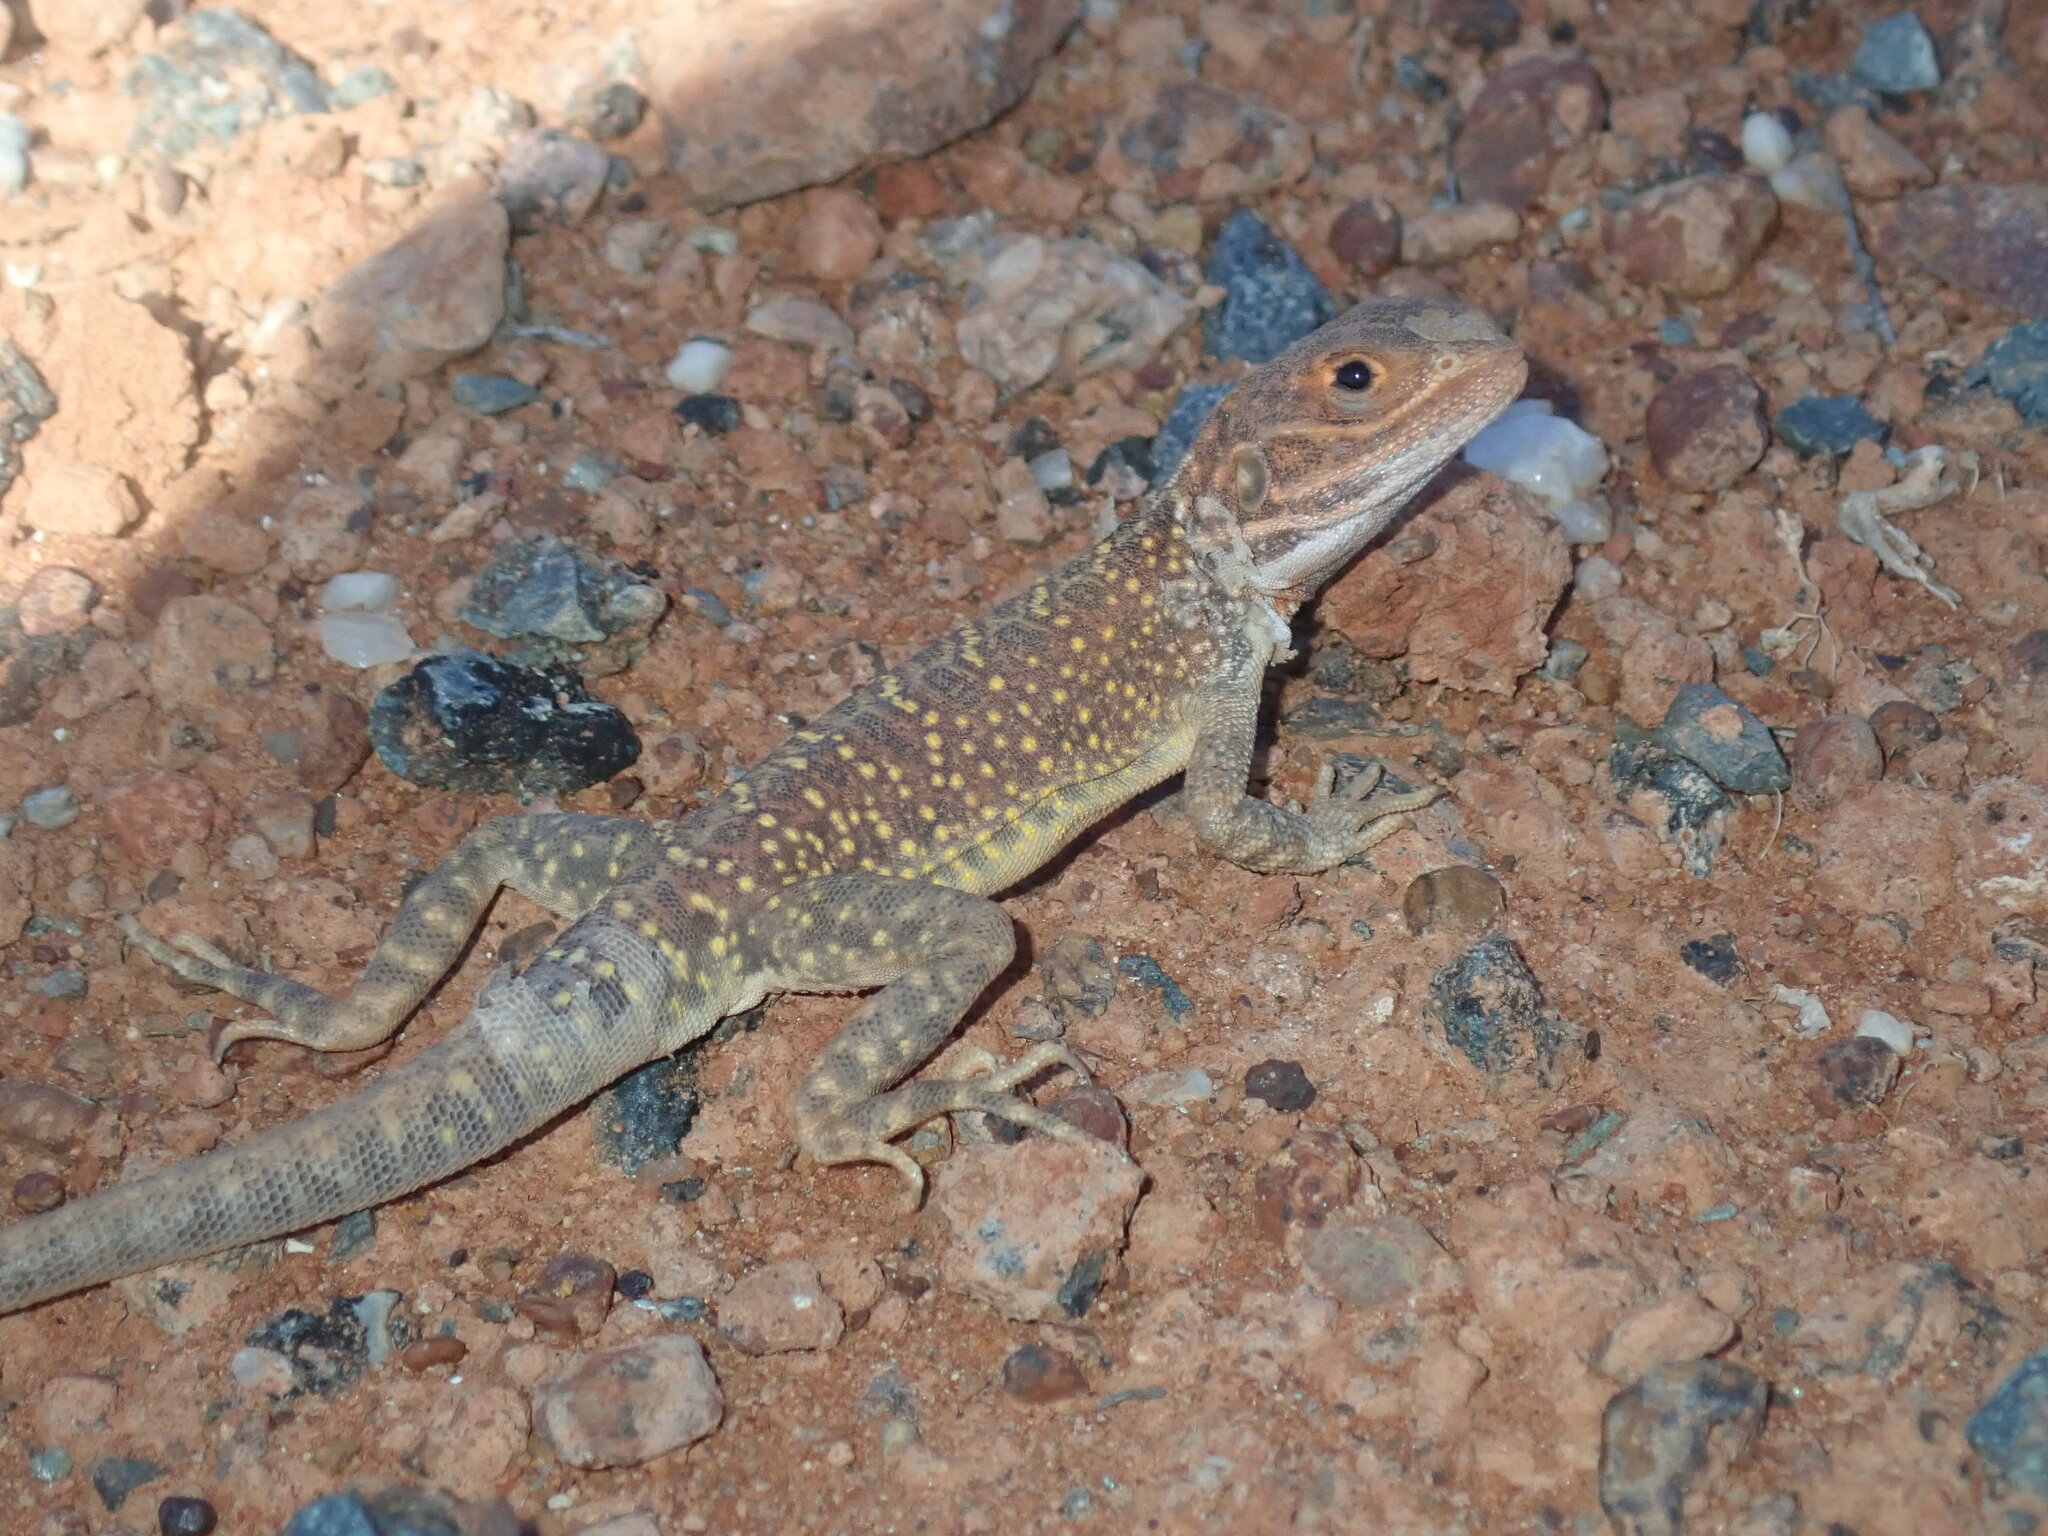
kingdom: Animalia
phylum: Chordata
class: Squamata
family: Agamidae
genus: Ctenophorus
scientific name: Ctenophorus salinarum
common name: Saltpan ground-dragon
